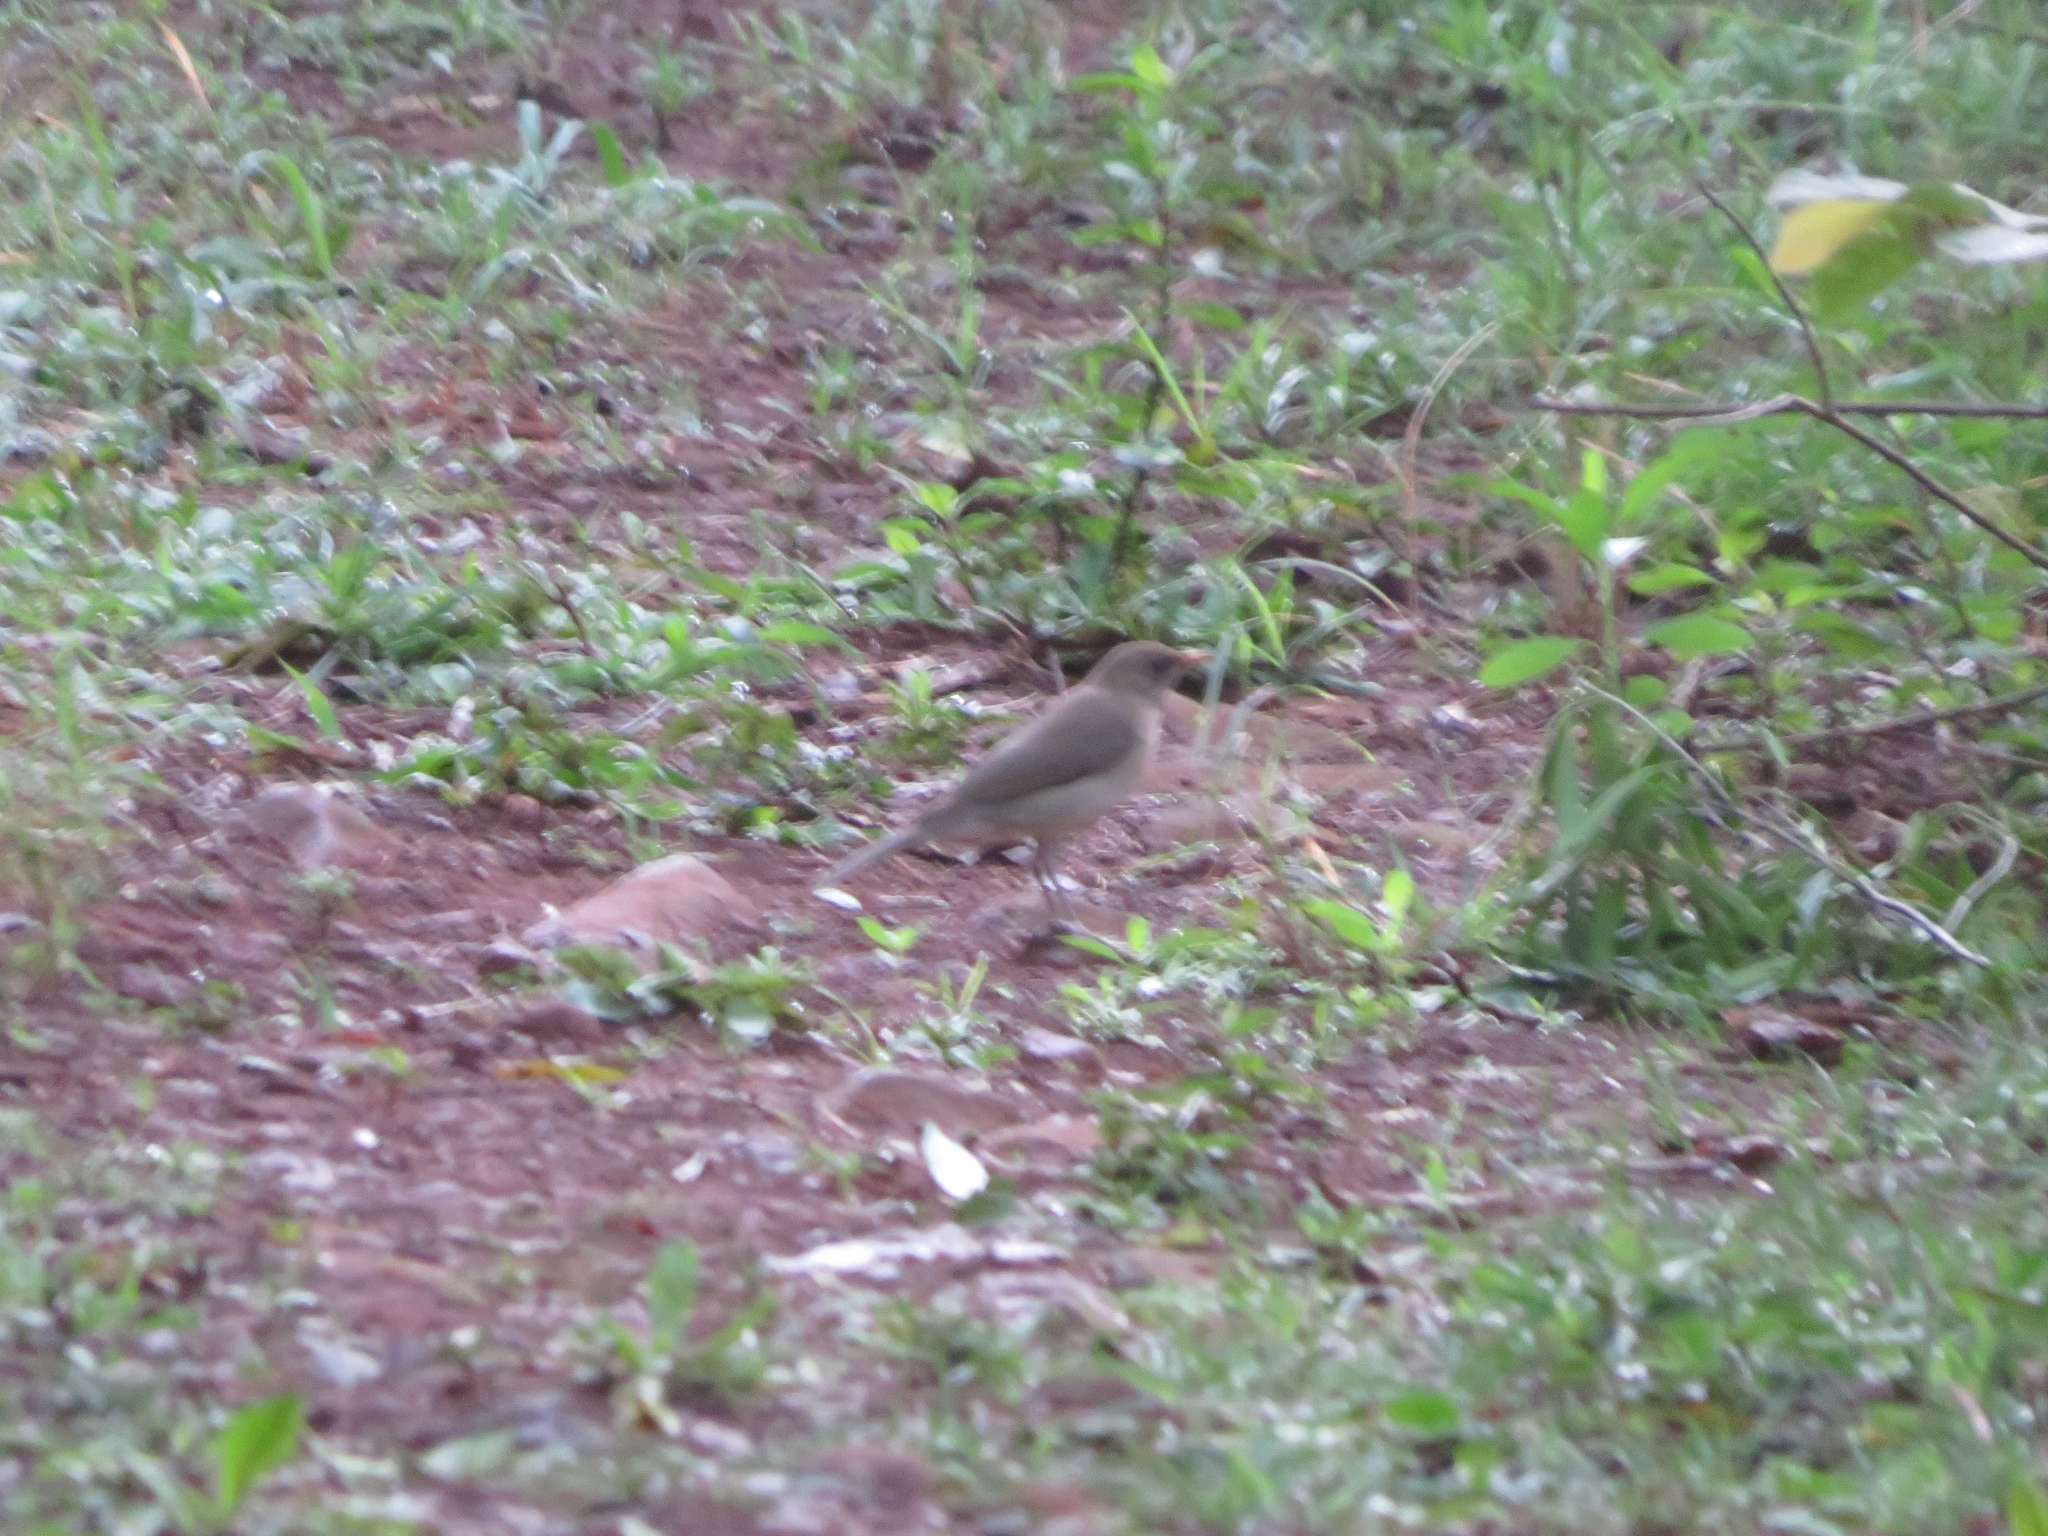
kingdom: Animalia
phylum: Chordata
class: Aves
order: Passeriformes
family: Turdidae
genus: Turdus
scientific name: Turdus amaurochalinus
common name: Creamy-bellied thrush
